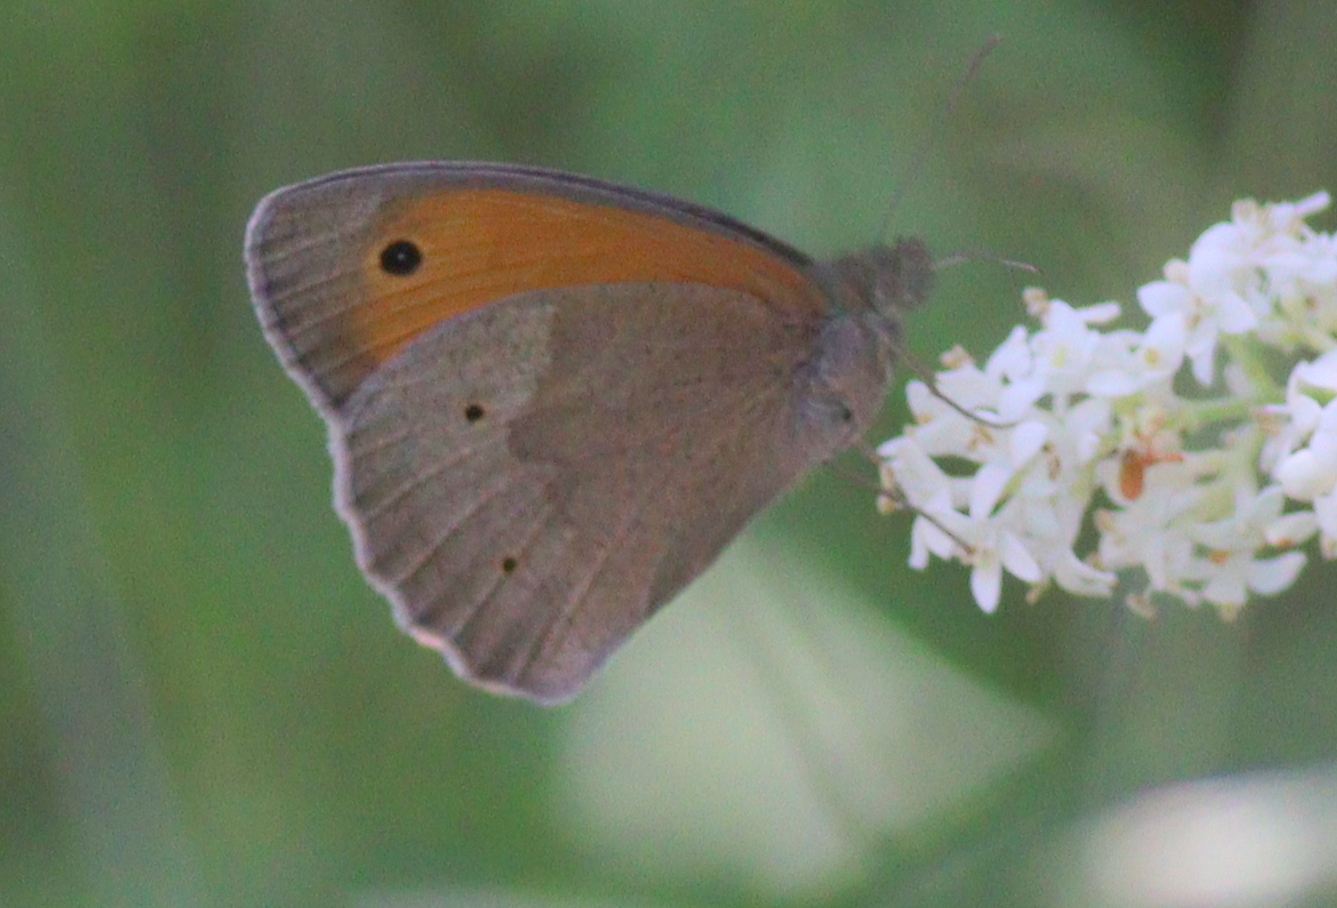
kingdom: Animalia
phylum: Arthropoda
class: Insecta
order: Lepidoptera
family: Nymphalidae
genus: Maniola
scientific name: Maniola jurtina
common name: Meadow brown
